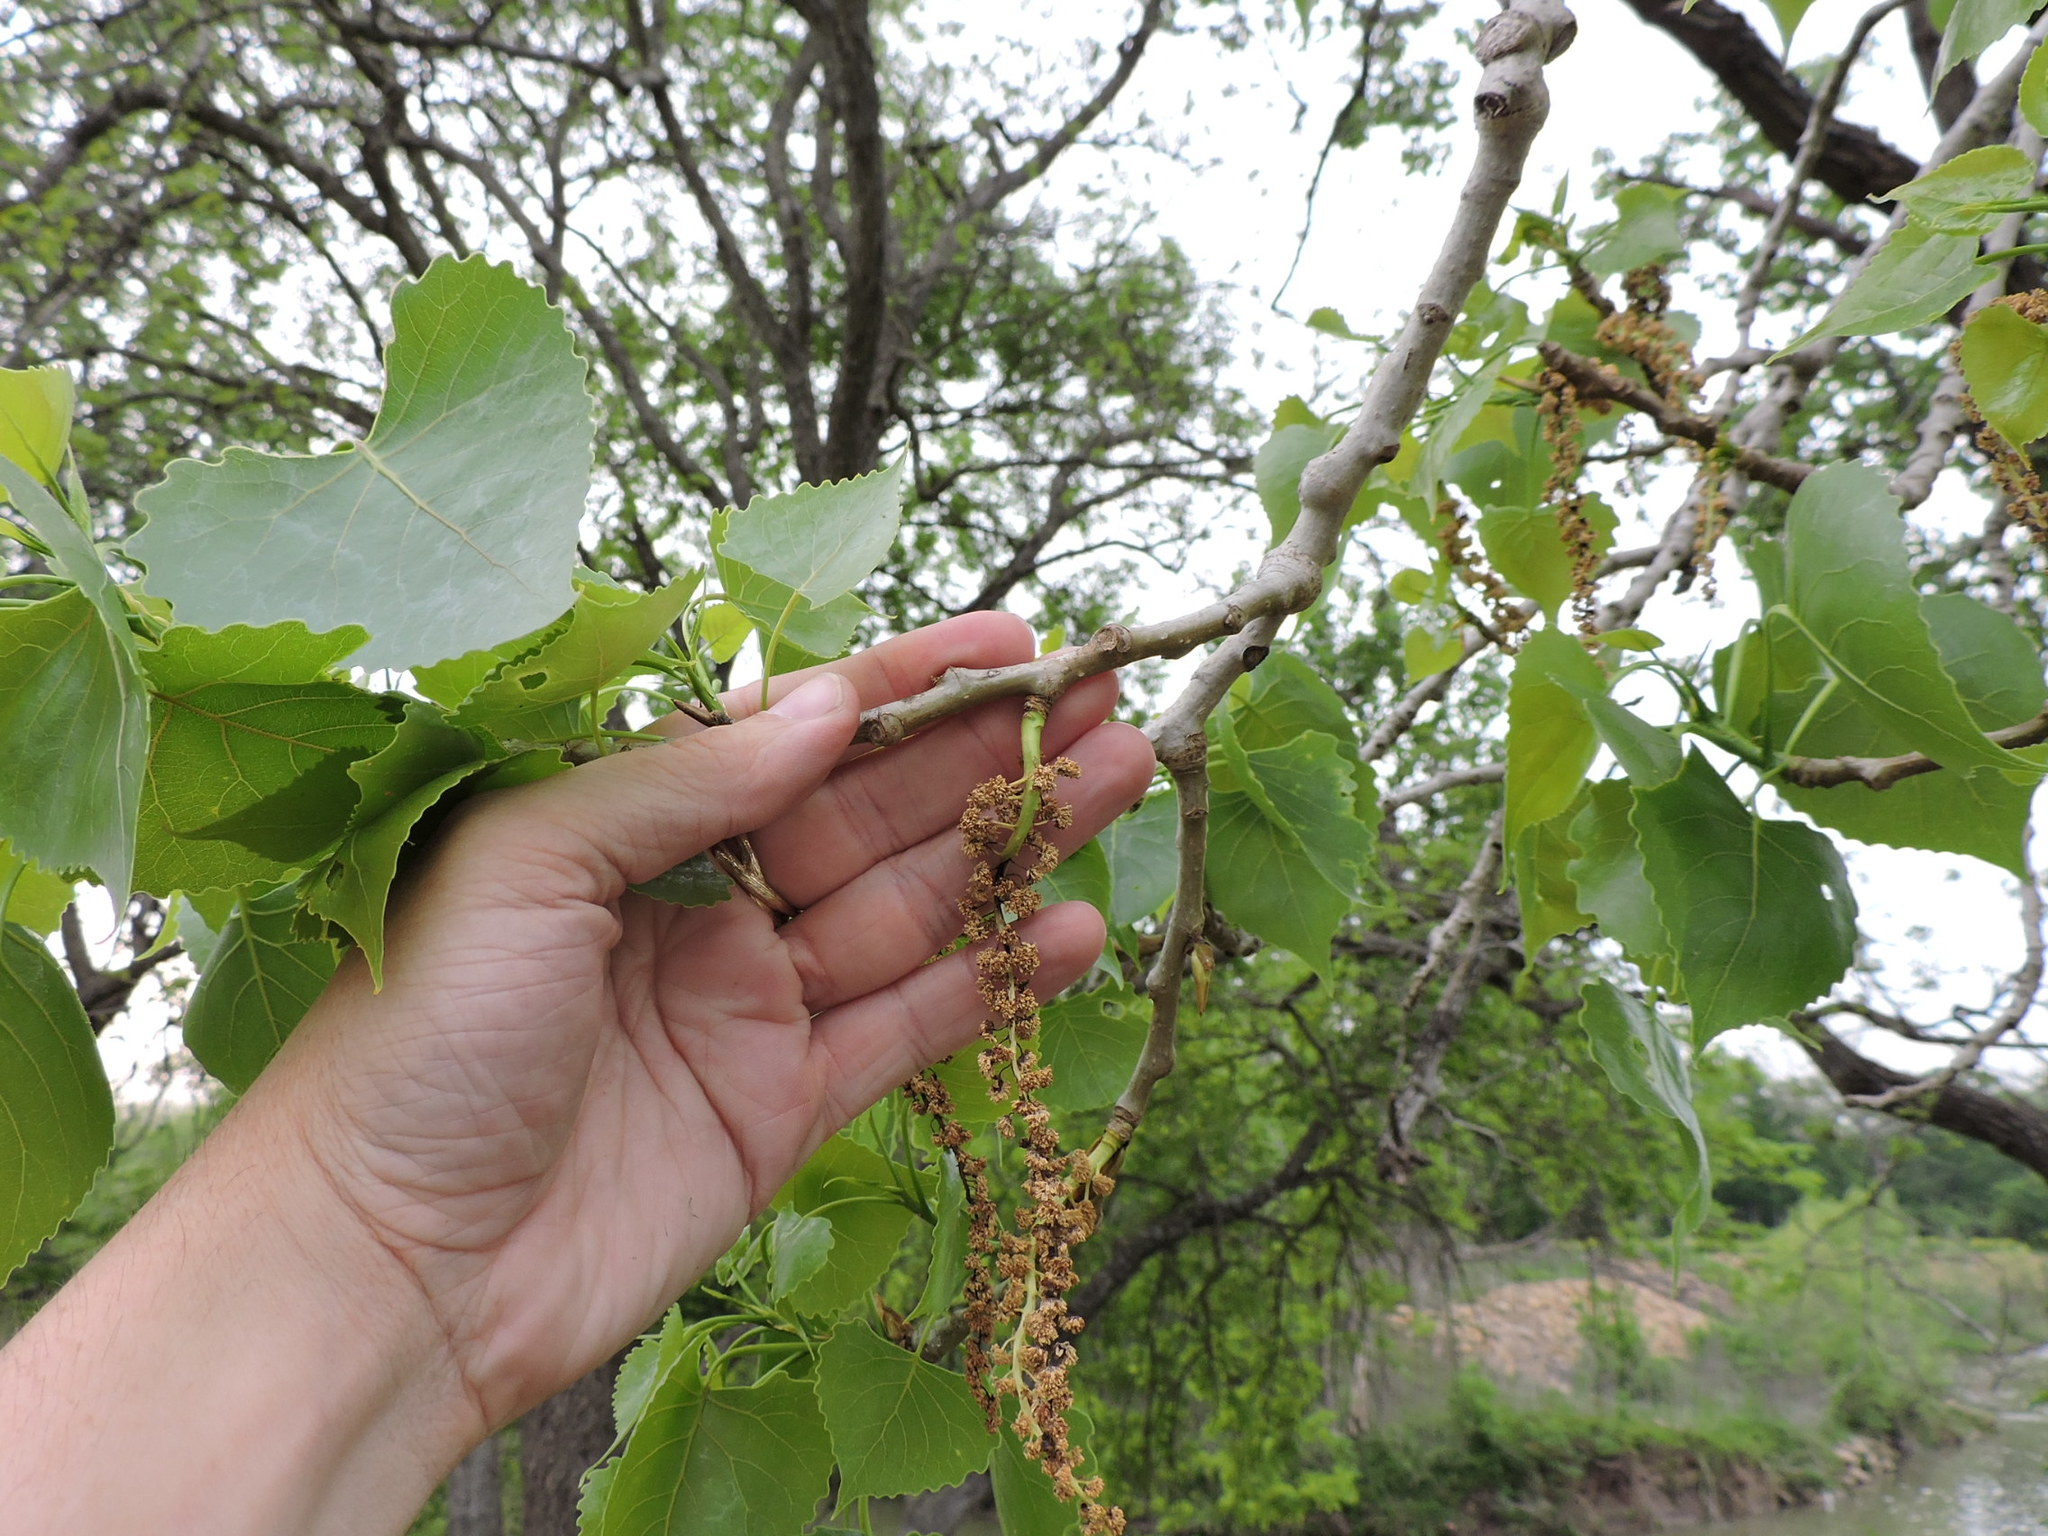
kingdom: Plantae
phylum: Tracheophyta
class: Magnoliopsida
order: Malpighiales
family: Salicaceae
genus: Populus
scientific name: Populus deltoides
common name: Eastern cottonwood
